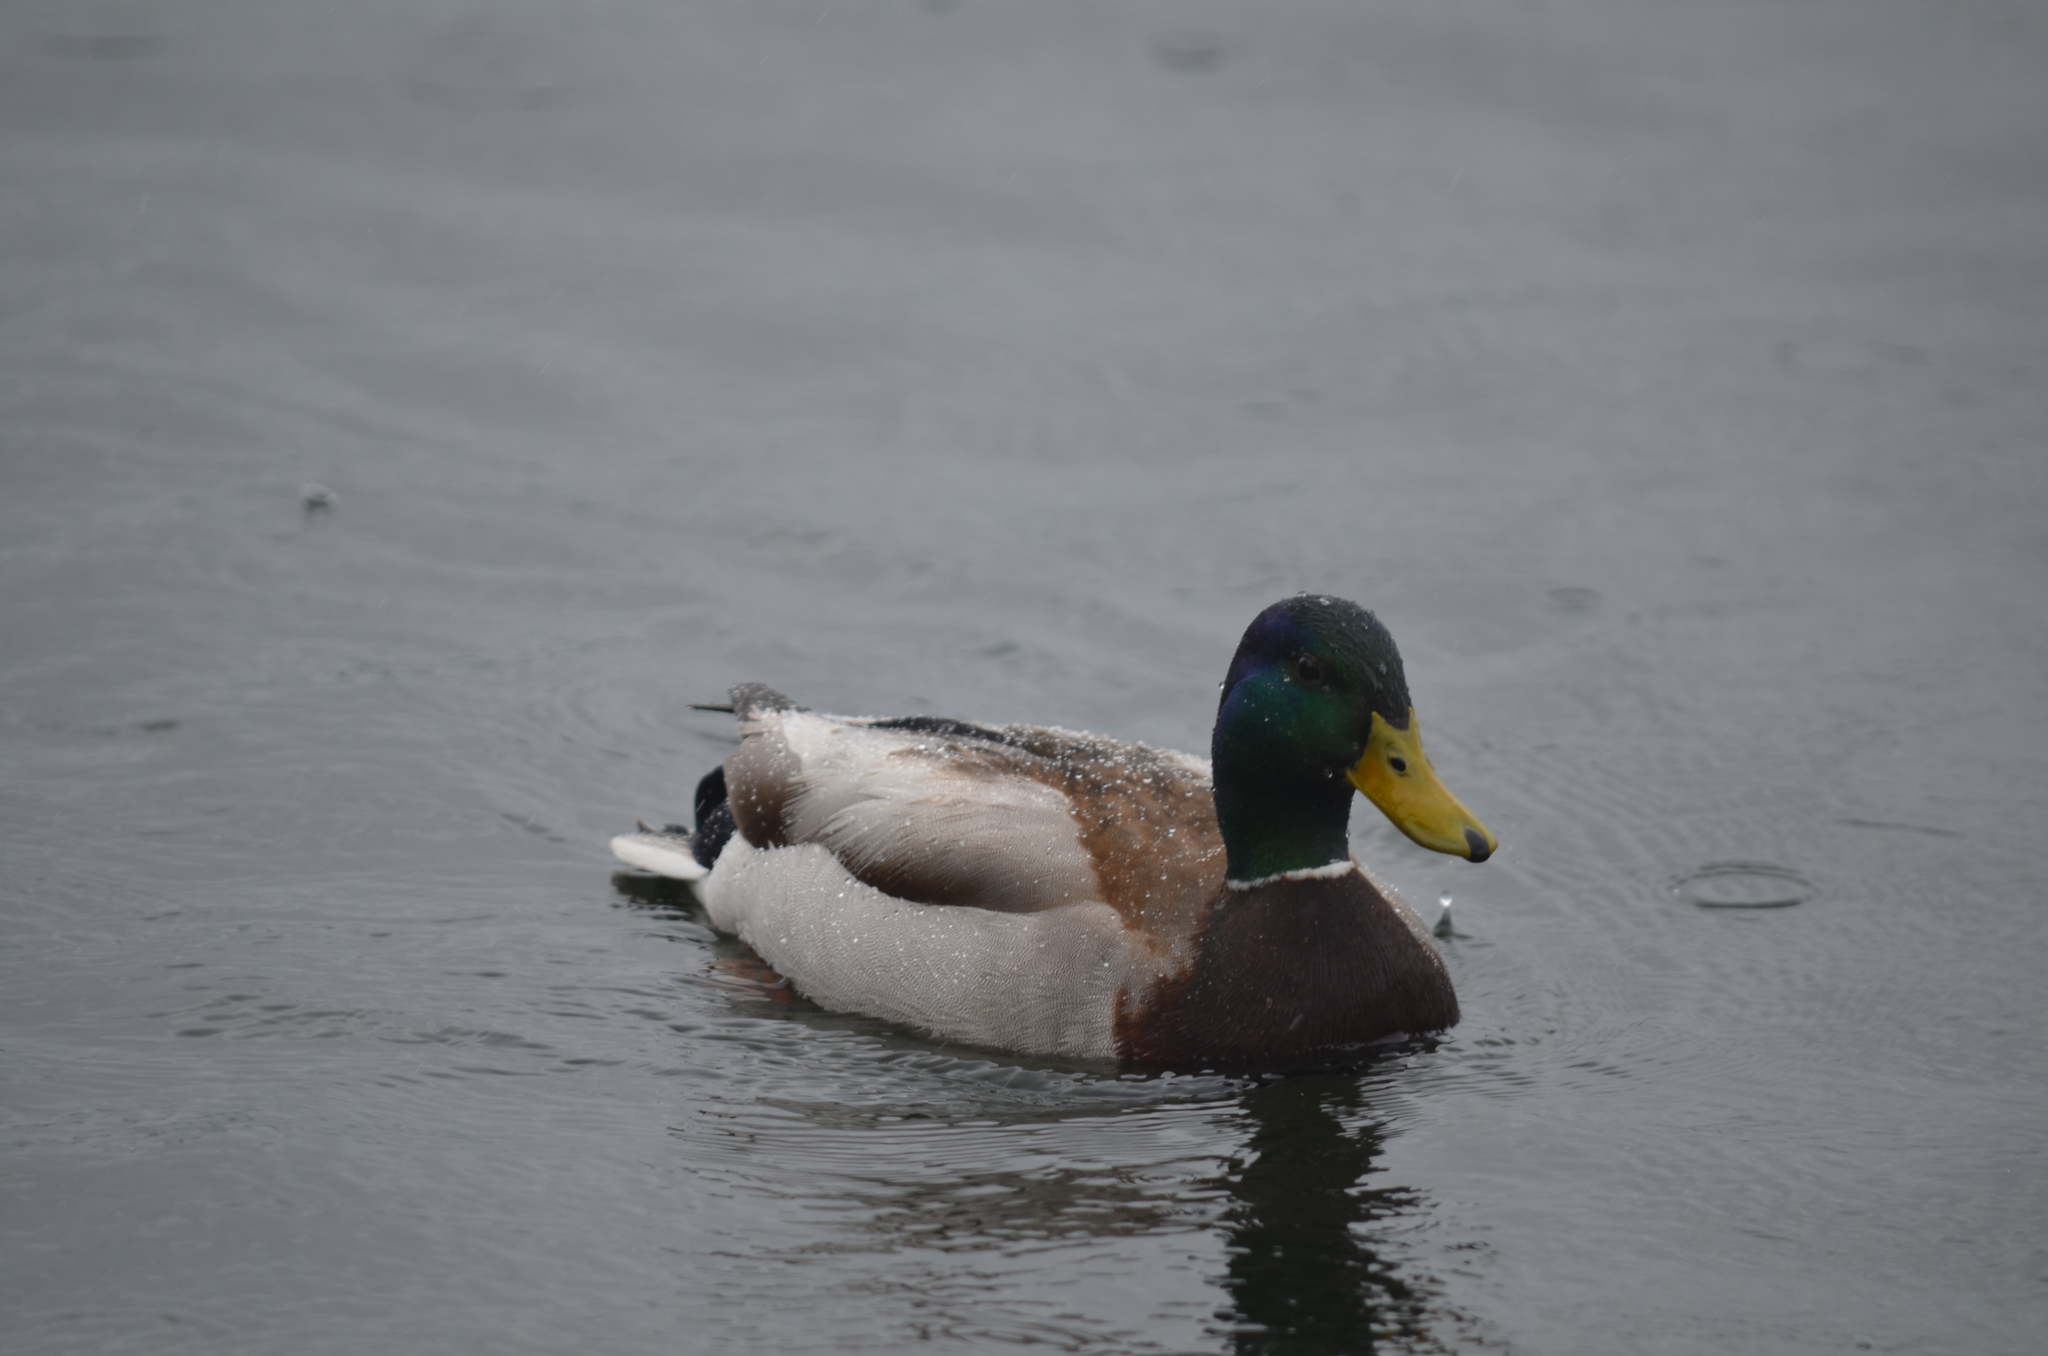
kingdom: Animalia
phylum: Chordata
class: Aves
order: Anseriformes
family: Anatidae
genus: Anas
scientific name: Anas platyrhynchos
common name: Mallard
